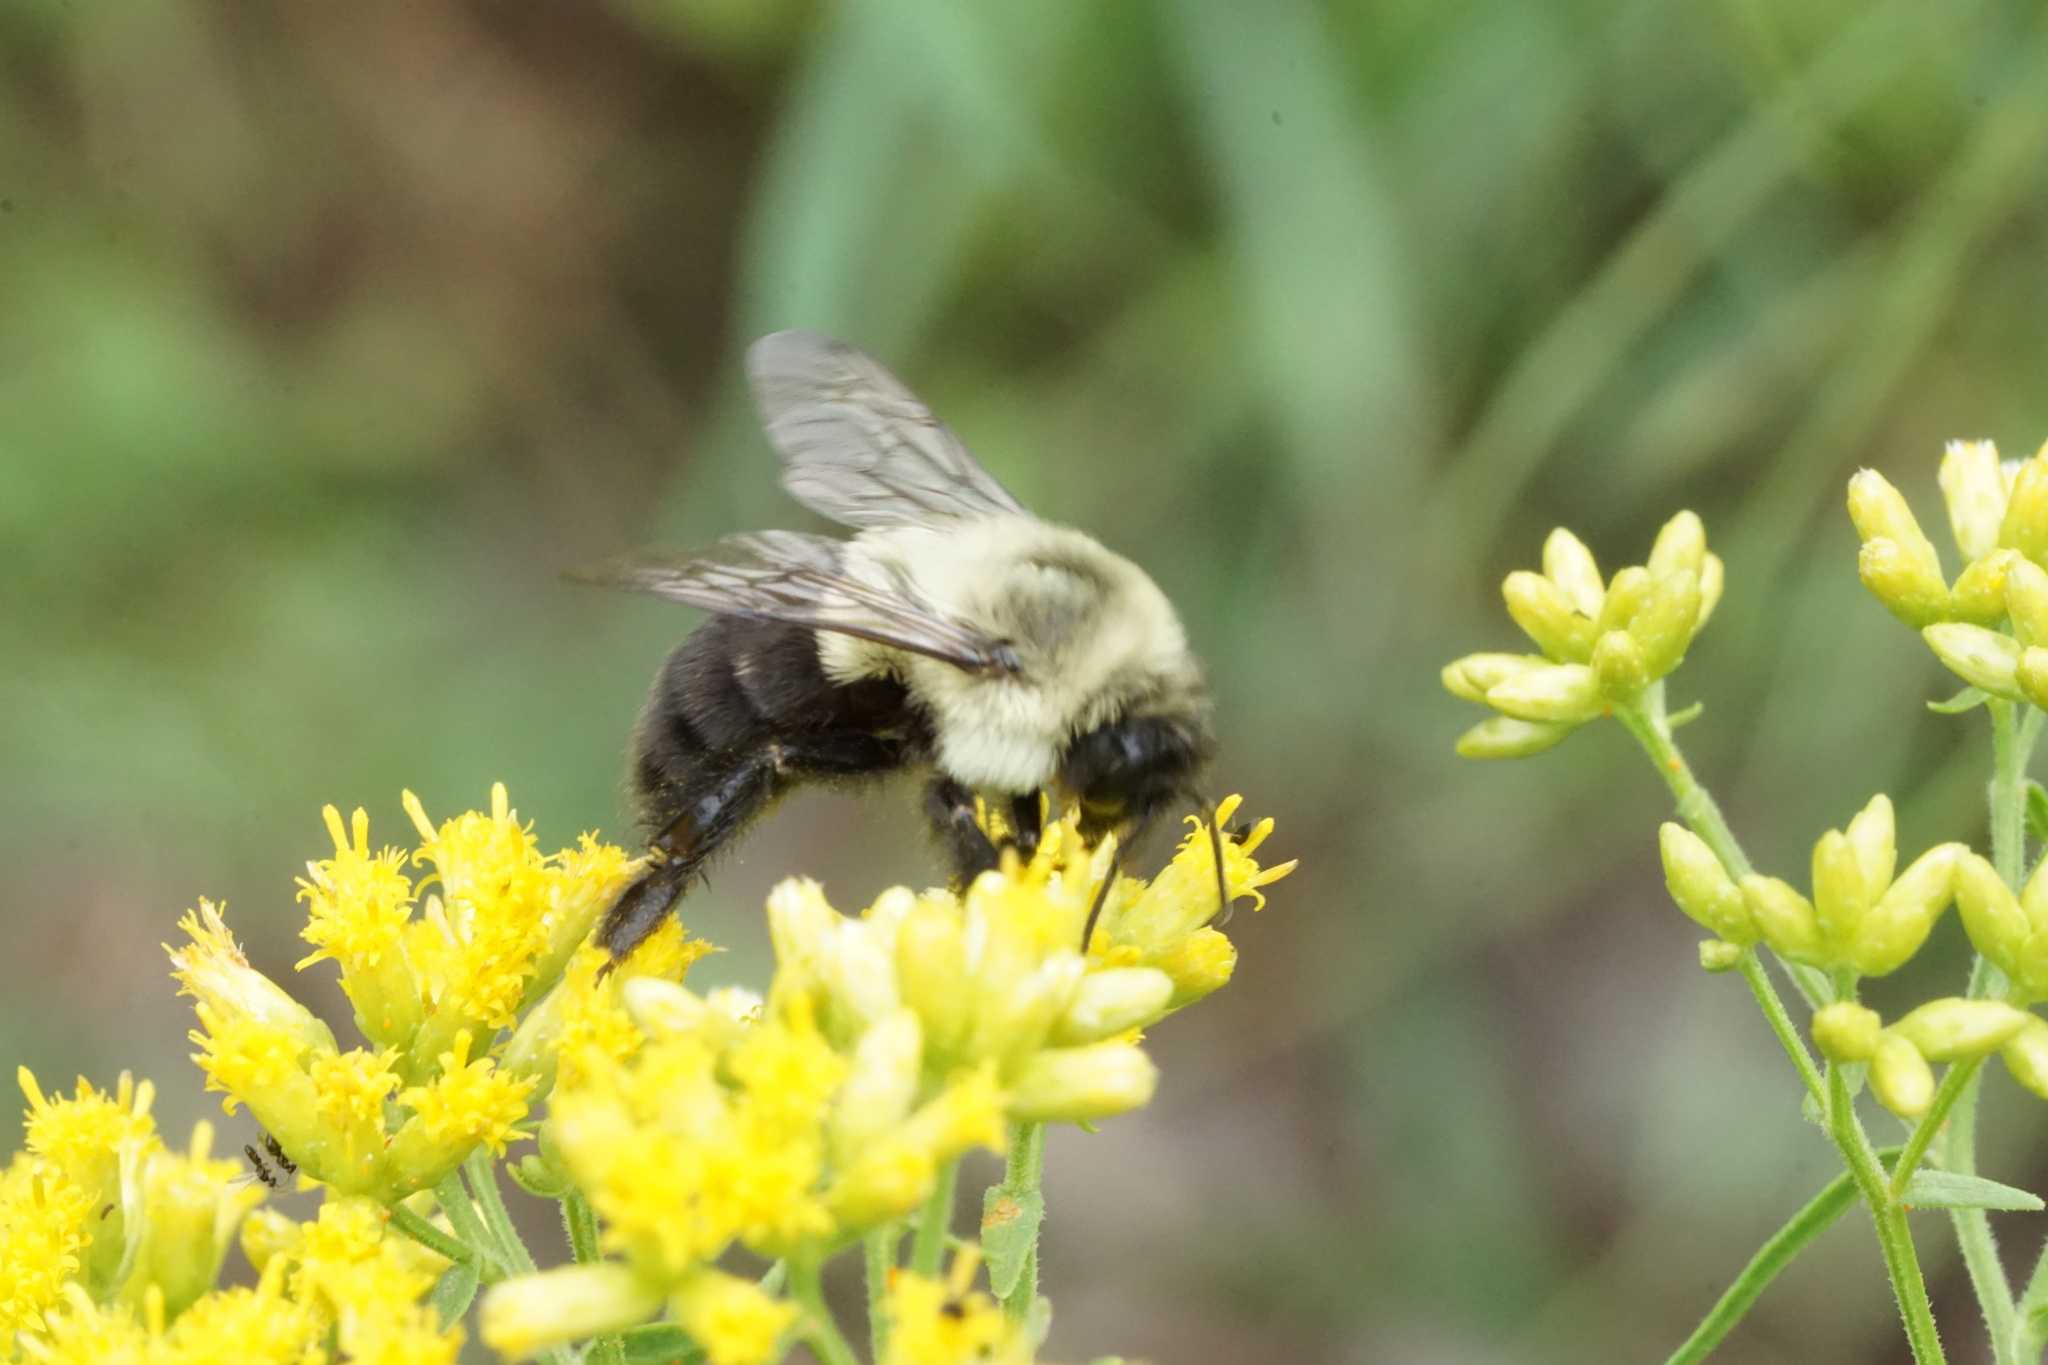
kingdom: Animalia
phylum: Arthropoda
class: Insecta
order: Hymenoptera
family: Apidae
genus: Bombus
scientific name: Bombus impatiens
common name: Common eastern bumble bee
